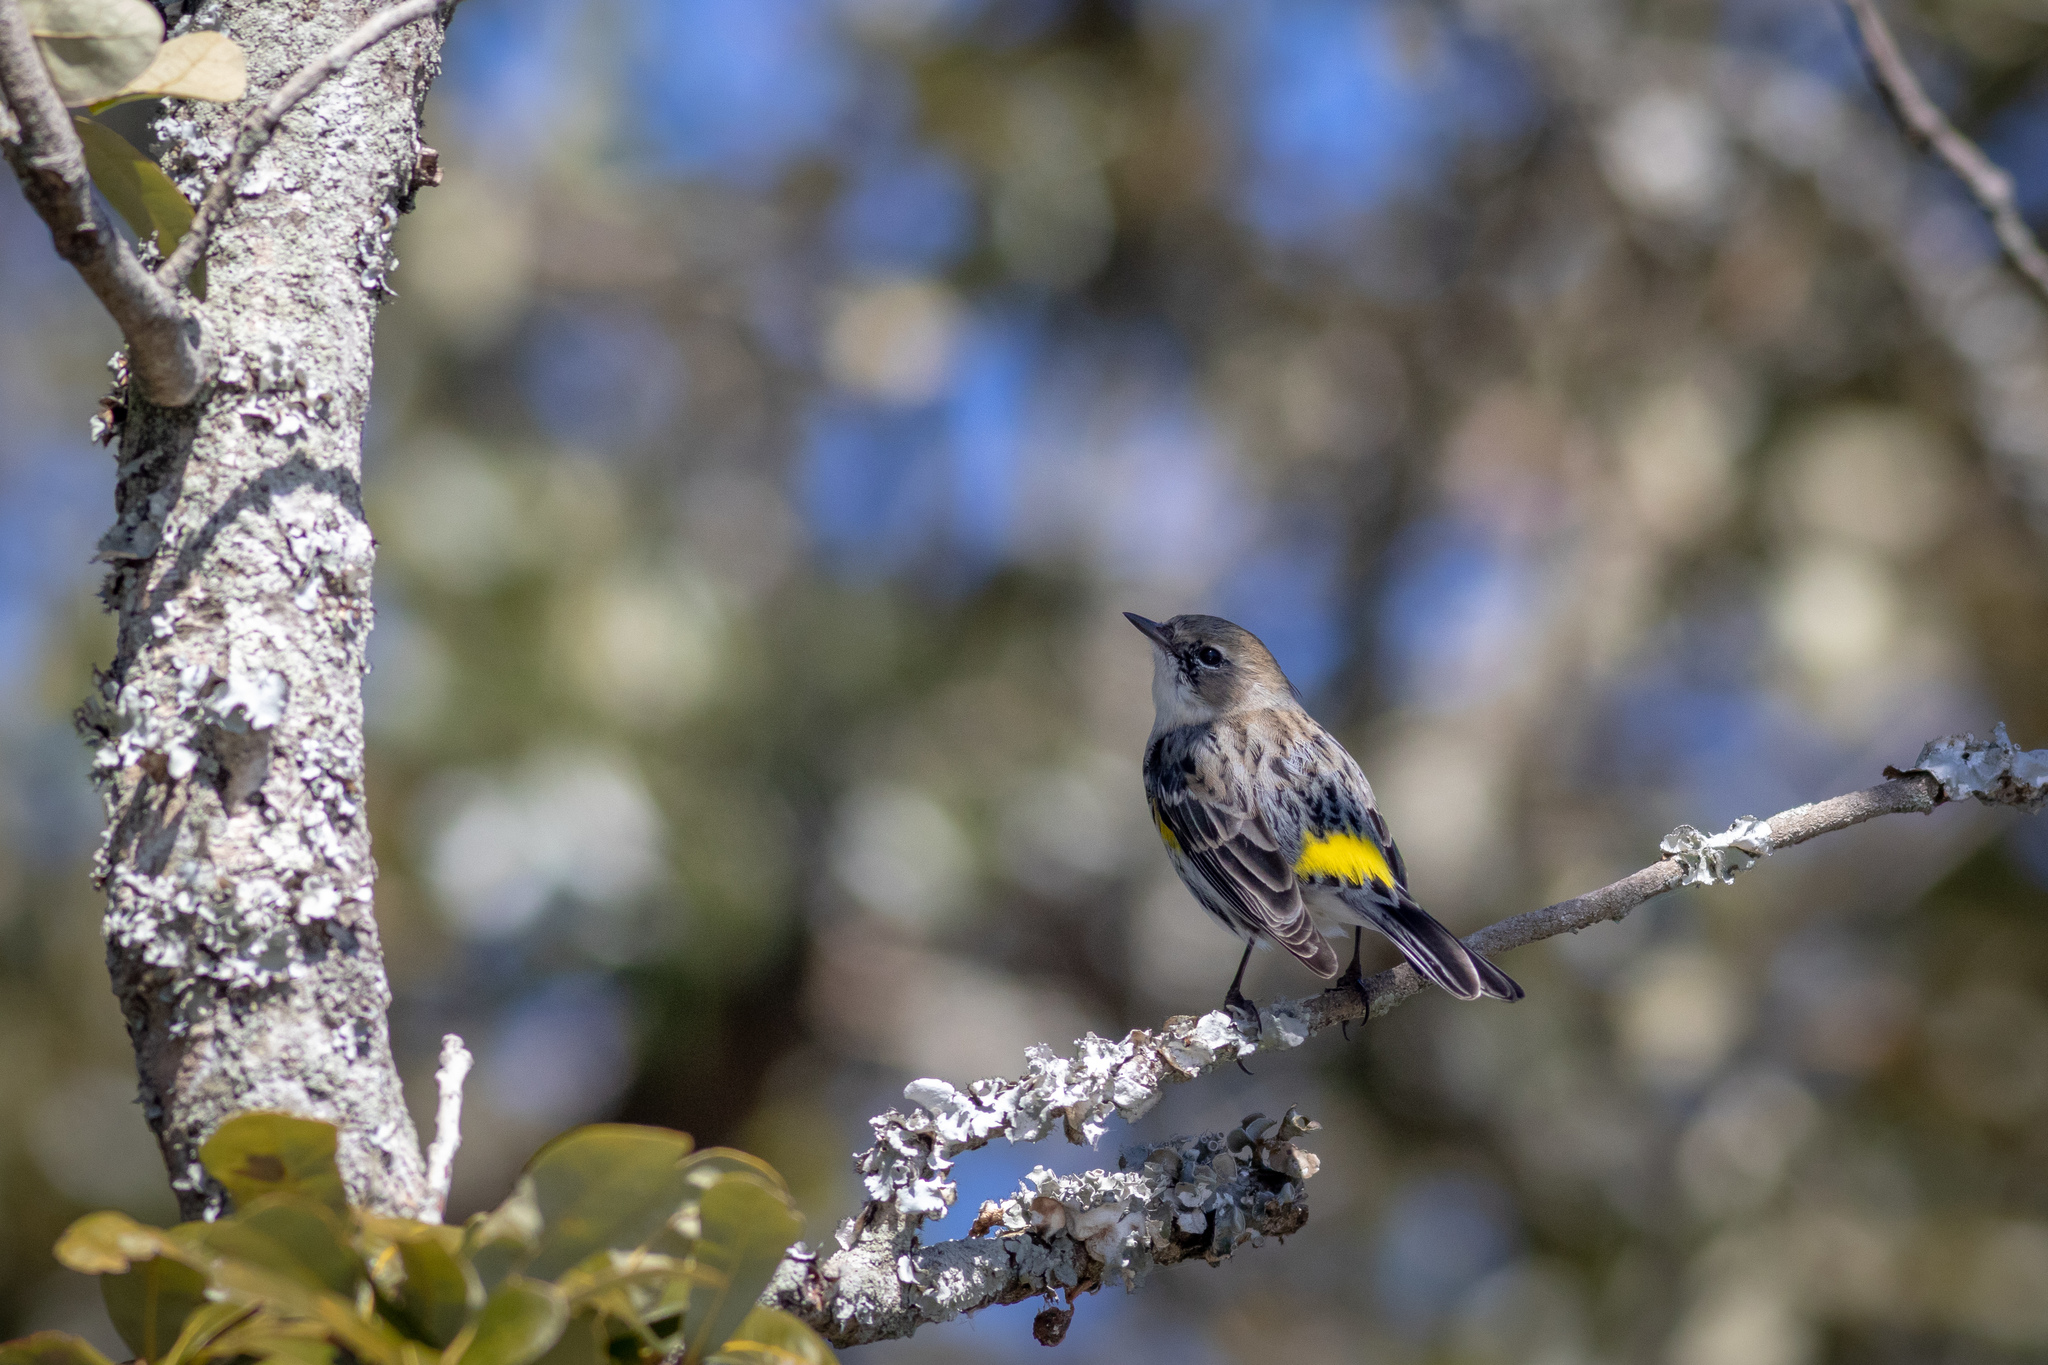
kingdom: Animalia
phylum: Chordata
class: Aves
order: Passeriformes
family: Parulidae
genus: Setophaga
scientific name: Setophaga coronata
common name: Myrtle warbler
